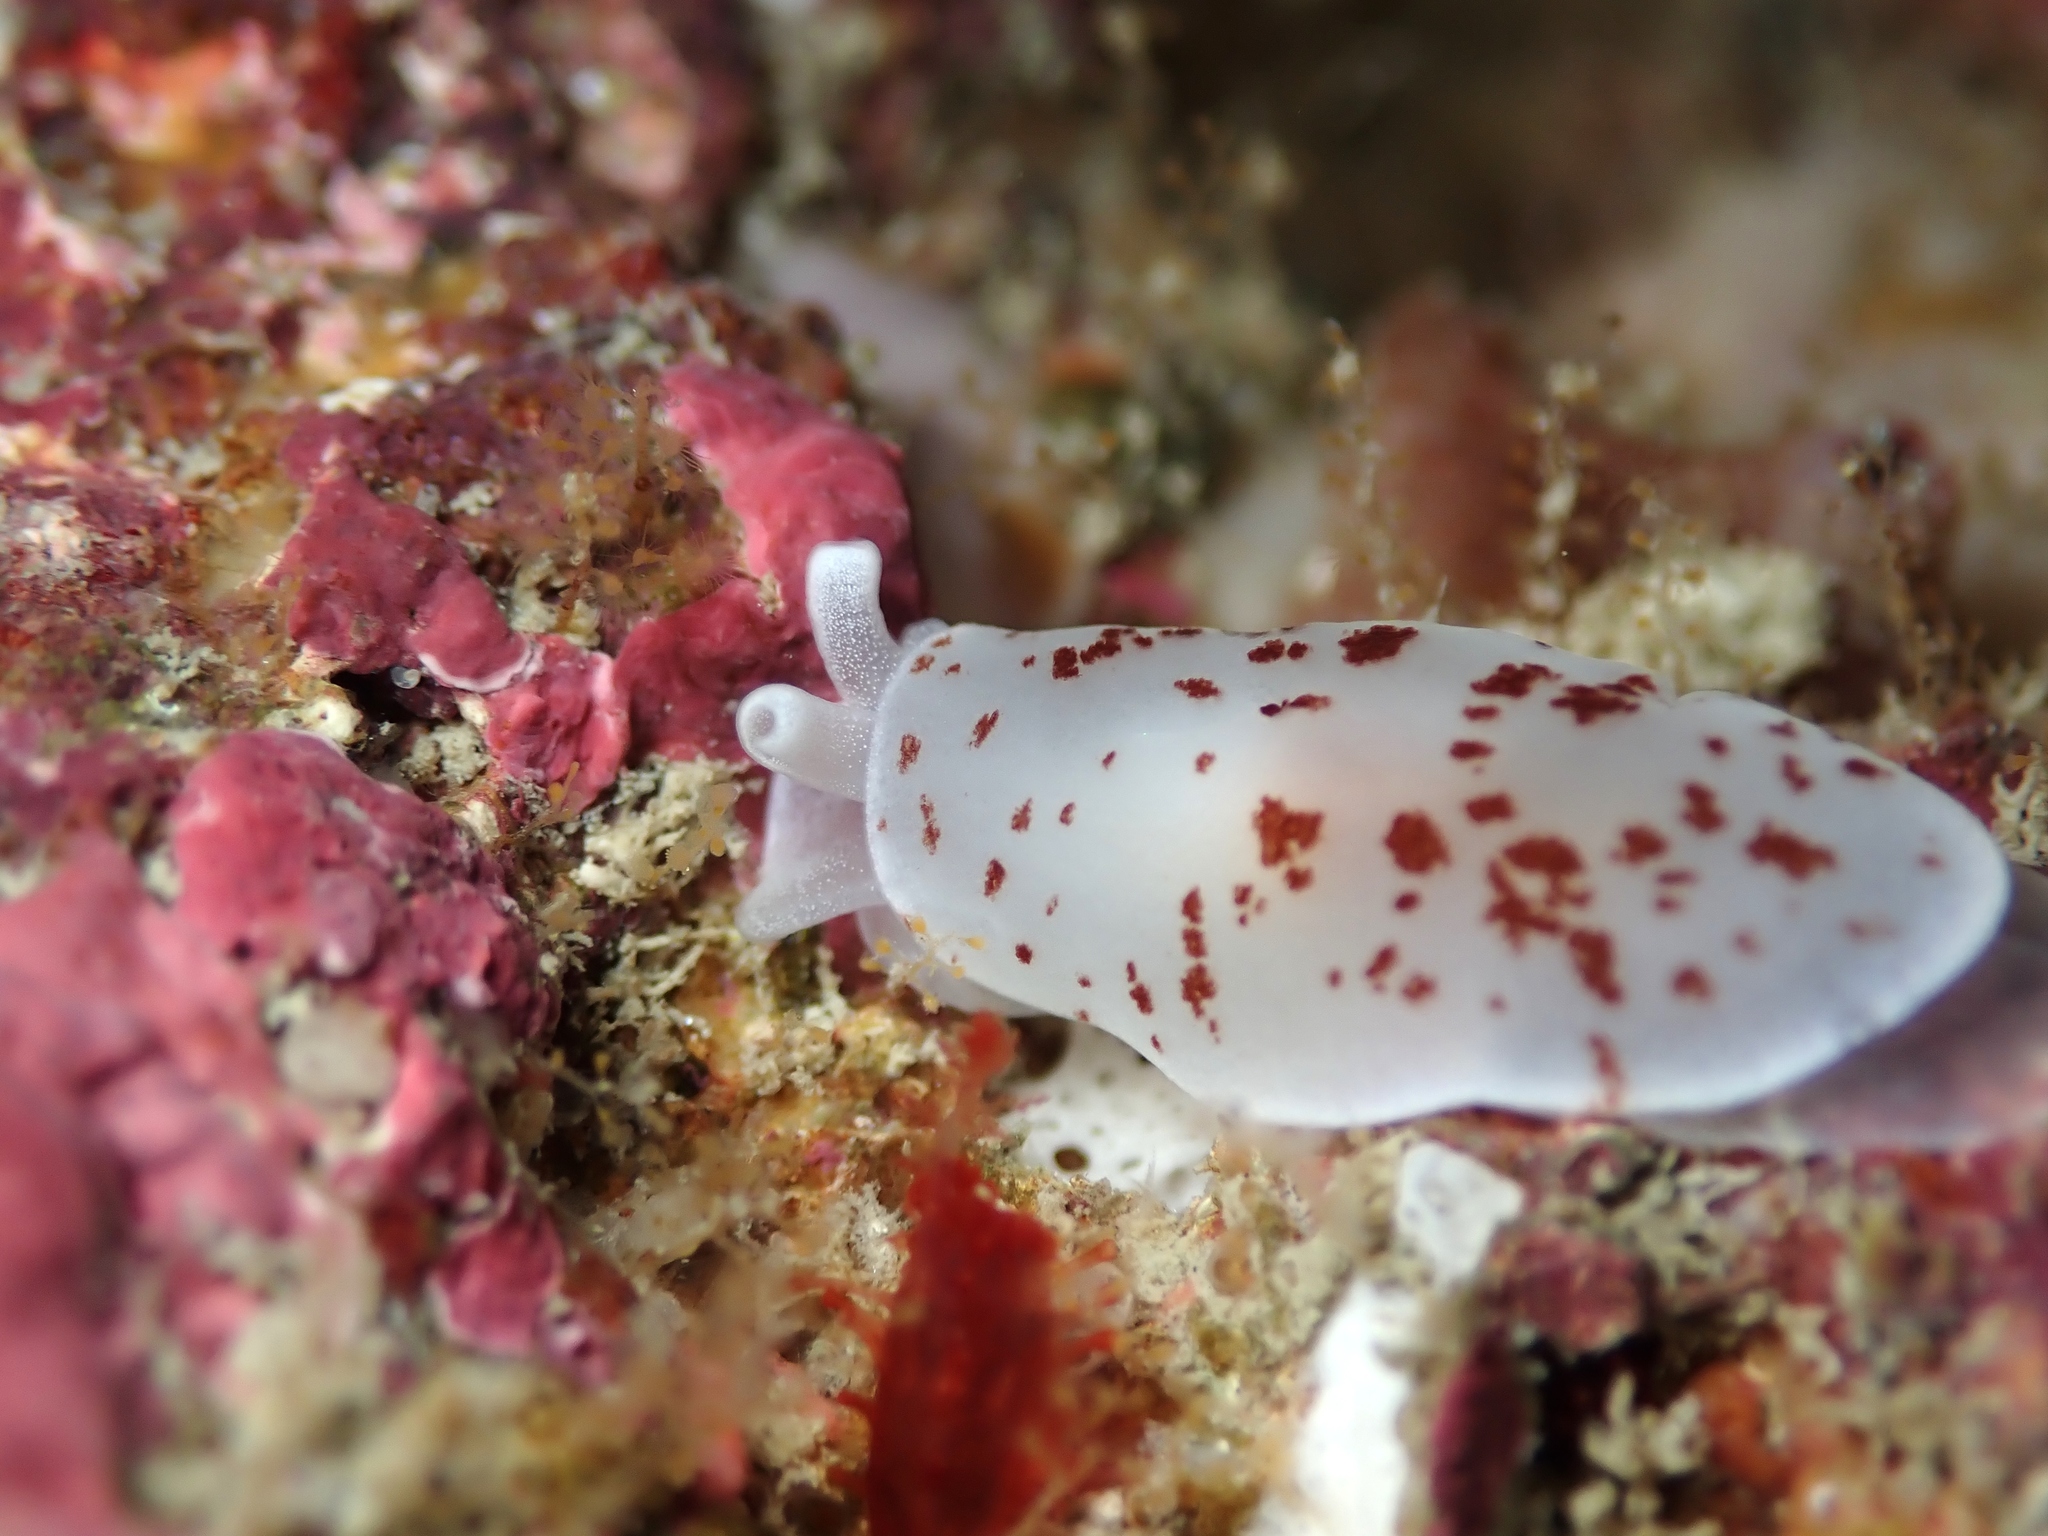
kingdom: Animalia
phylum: Mollusca
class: Gastropoda
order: Pleurobranchida
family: Pleurobranchidae
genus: Berthella
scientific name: Berthella ornata
